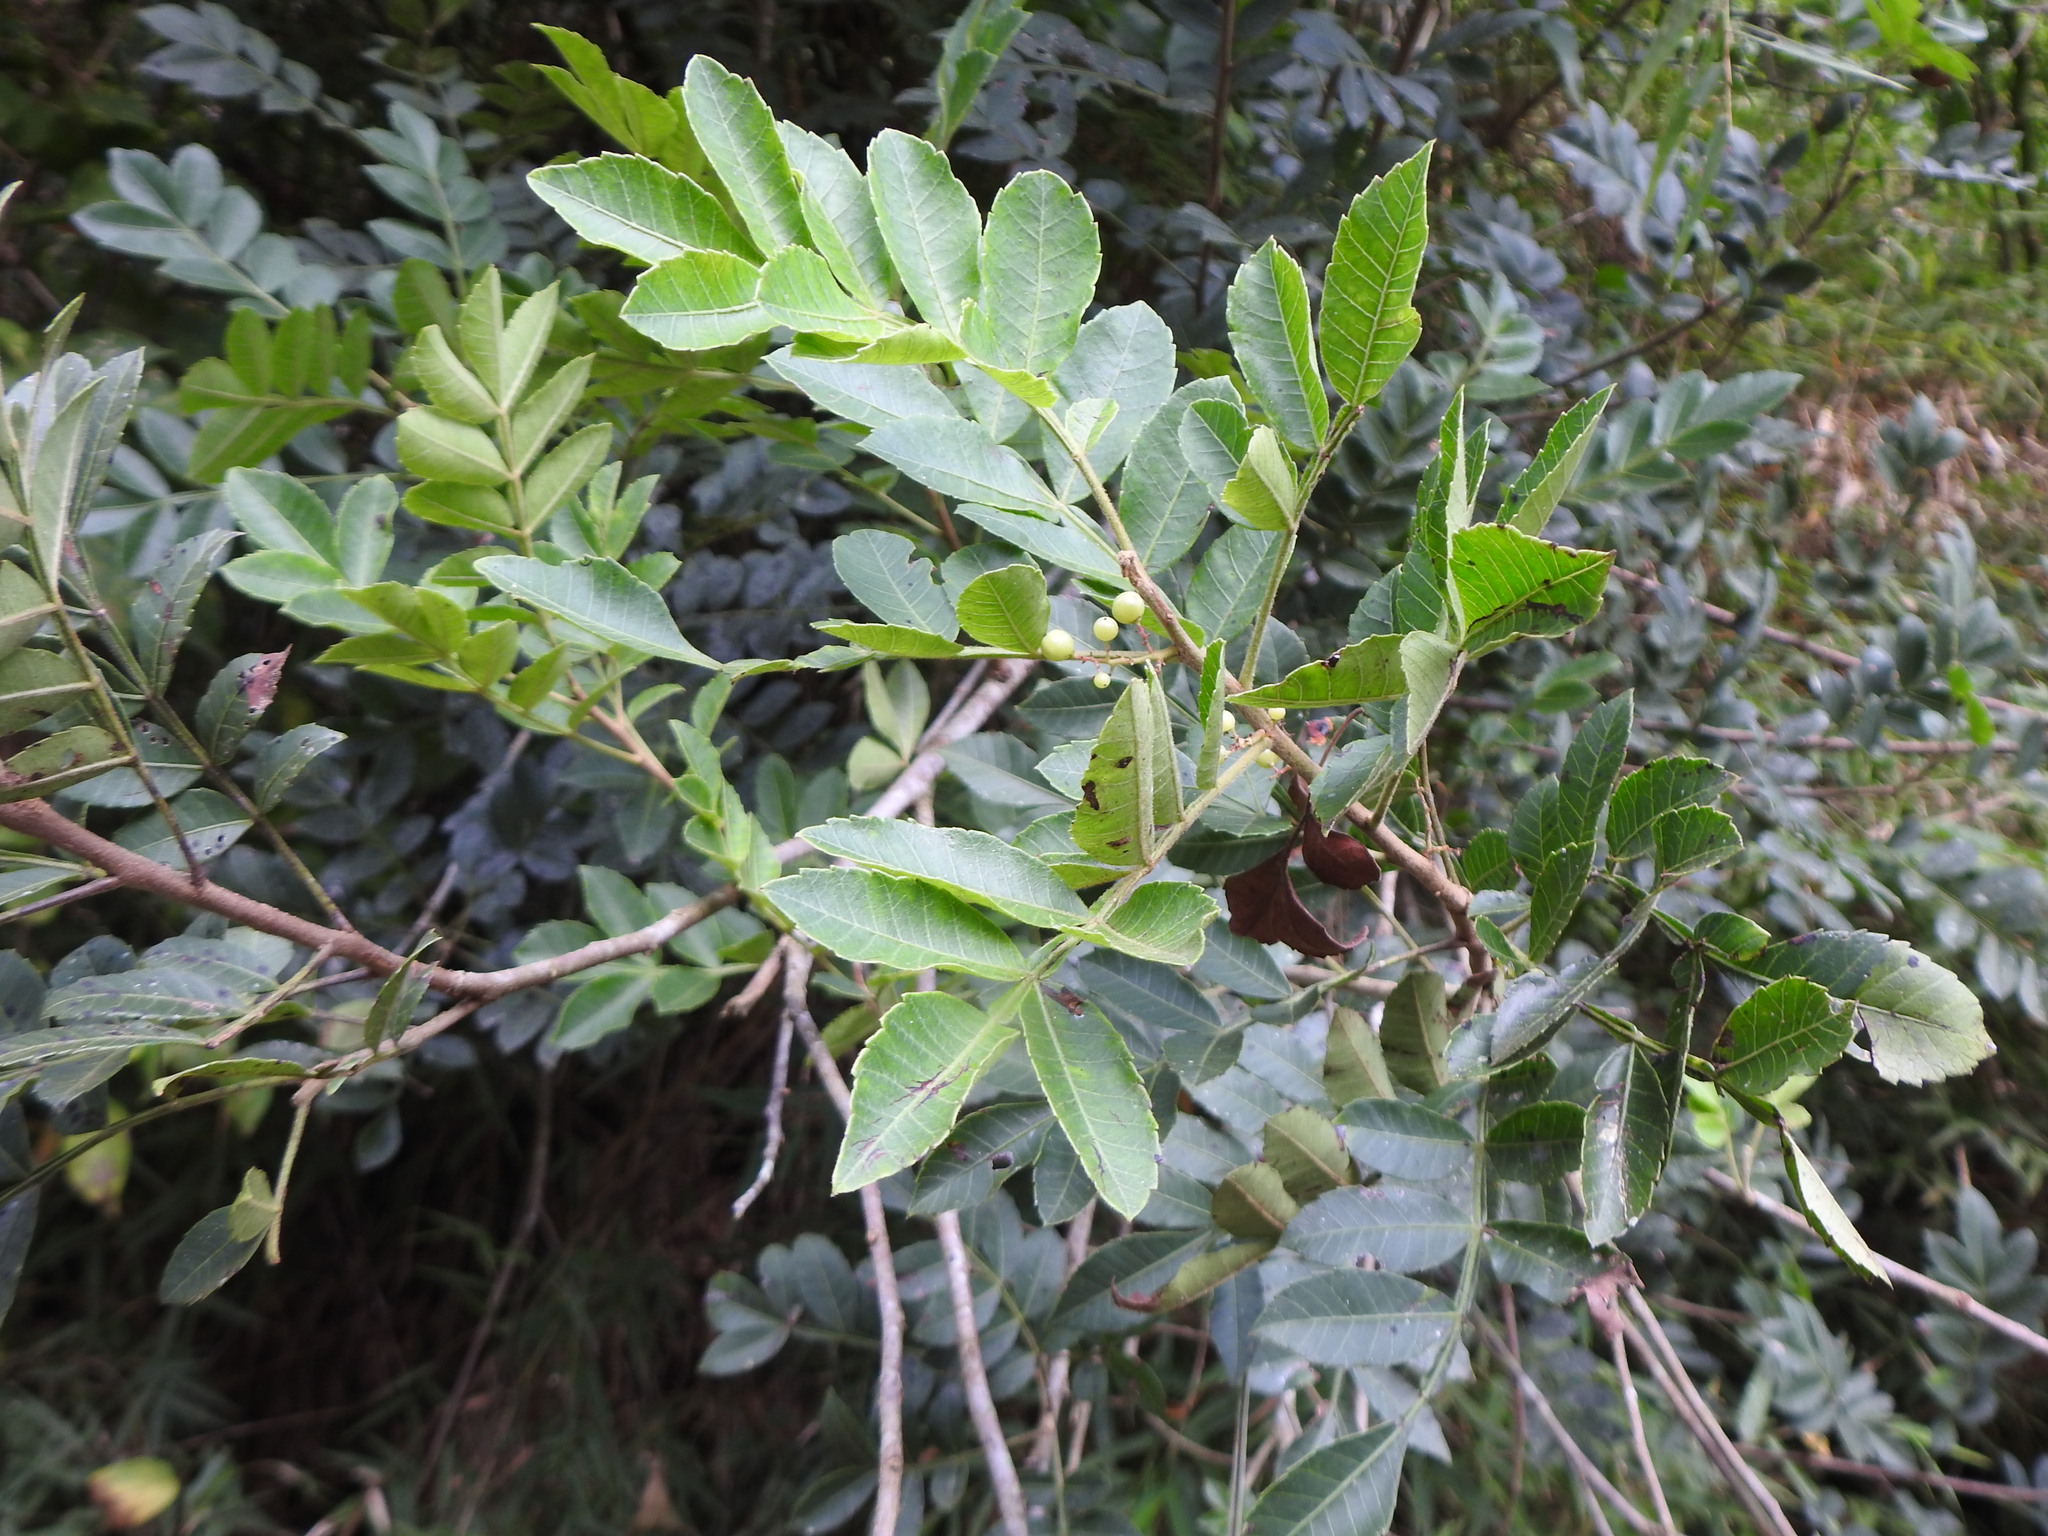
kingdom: Plantae
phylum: Tracheophyta
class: Magnoliopsida
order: Sapindales
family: Anacardiaceae
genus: Schinus
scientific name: Schinus terebinthifolia
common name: Brazilian peppertree
